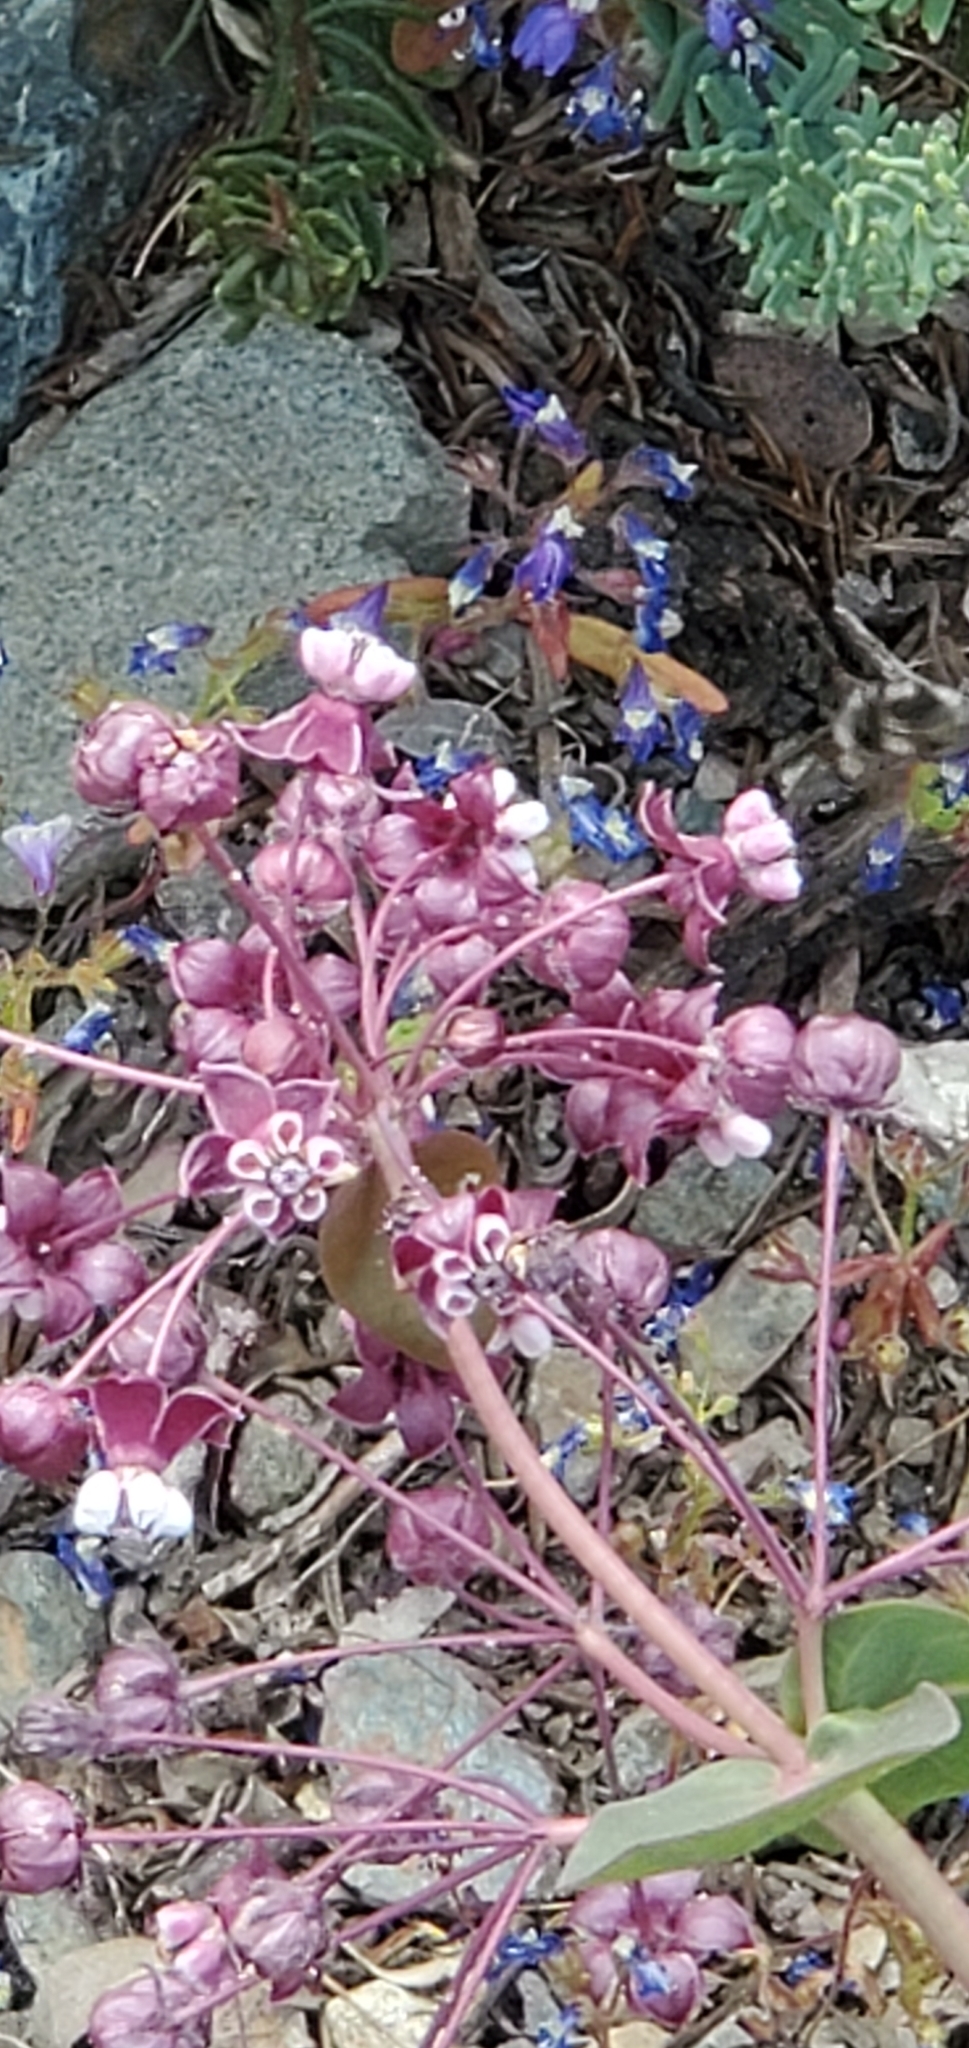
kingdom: Plantae
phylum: Tracheophyta
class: Magnoliopsida
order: Gentianales
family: Apocynaceae
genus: Asclepias
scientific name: Asclepias cordifolia
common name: Purple milkweed
